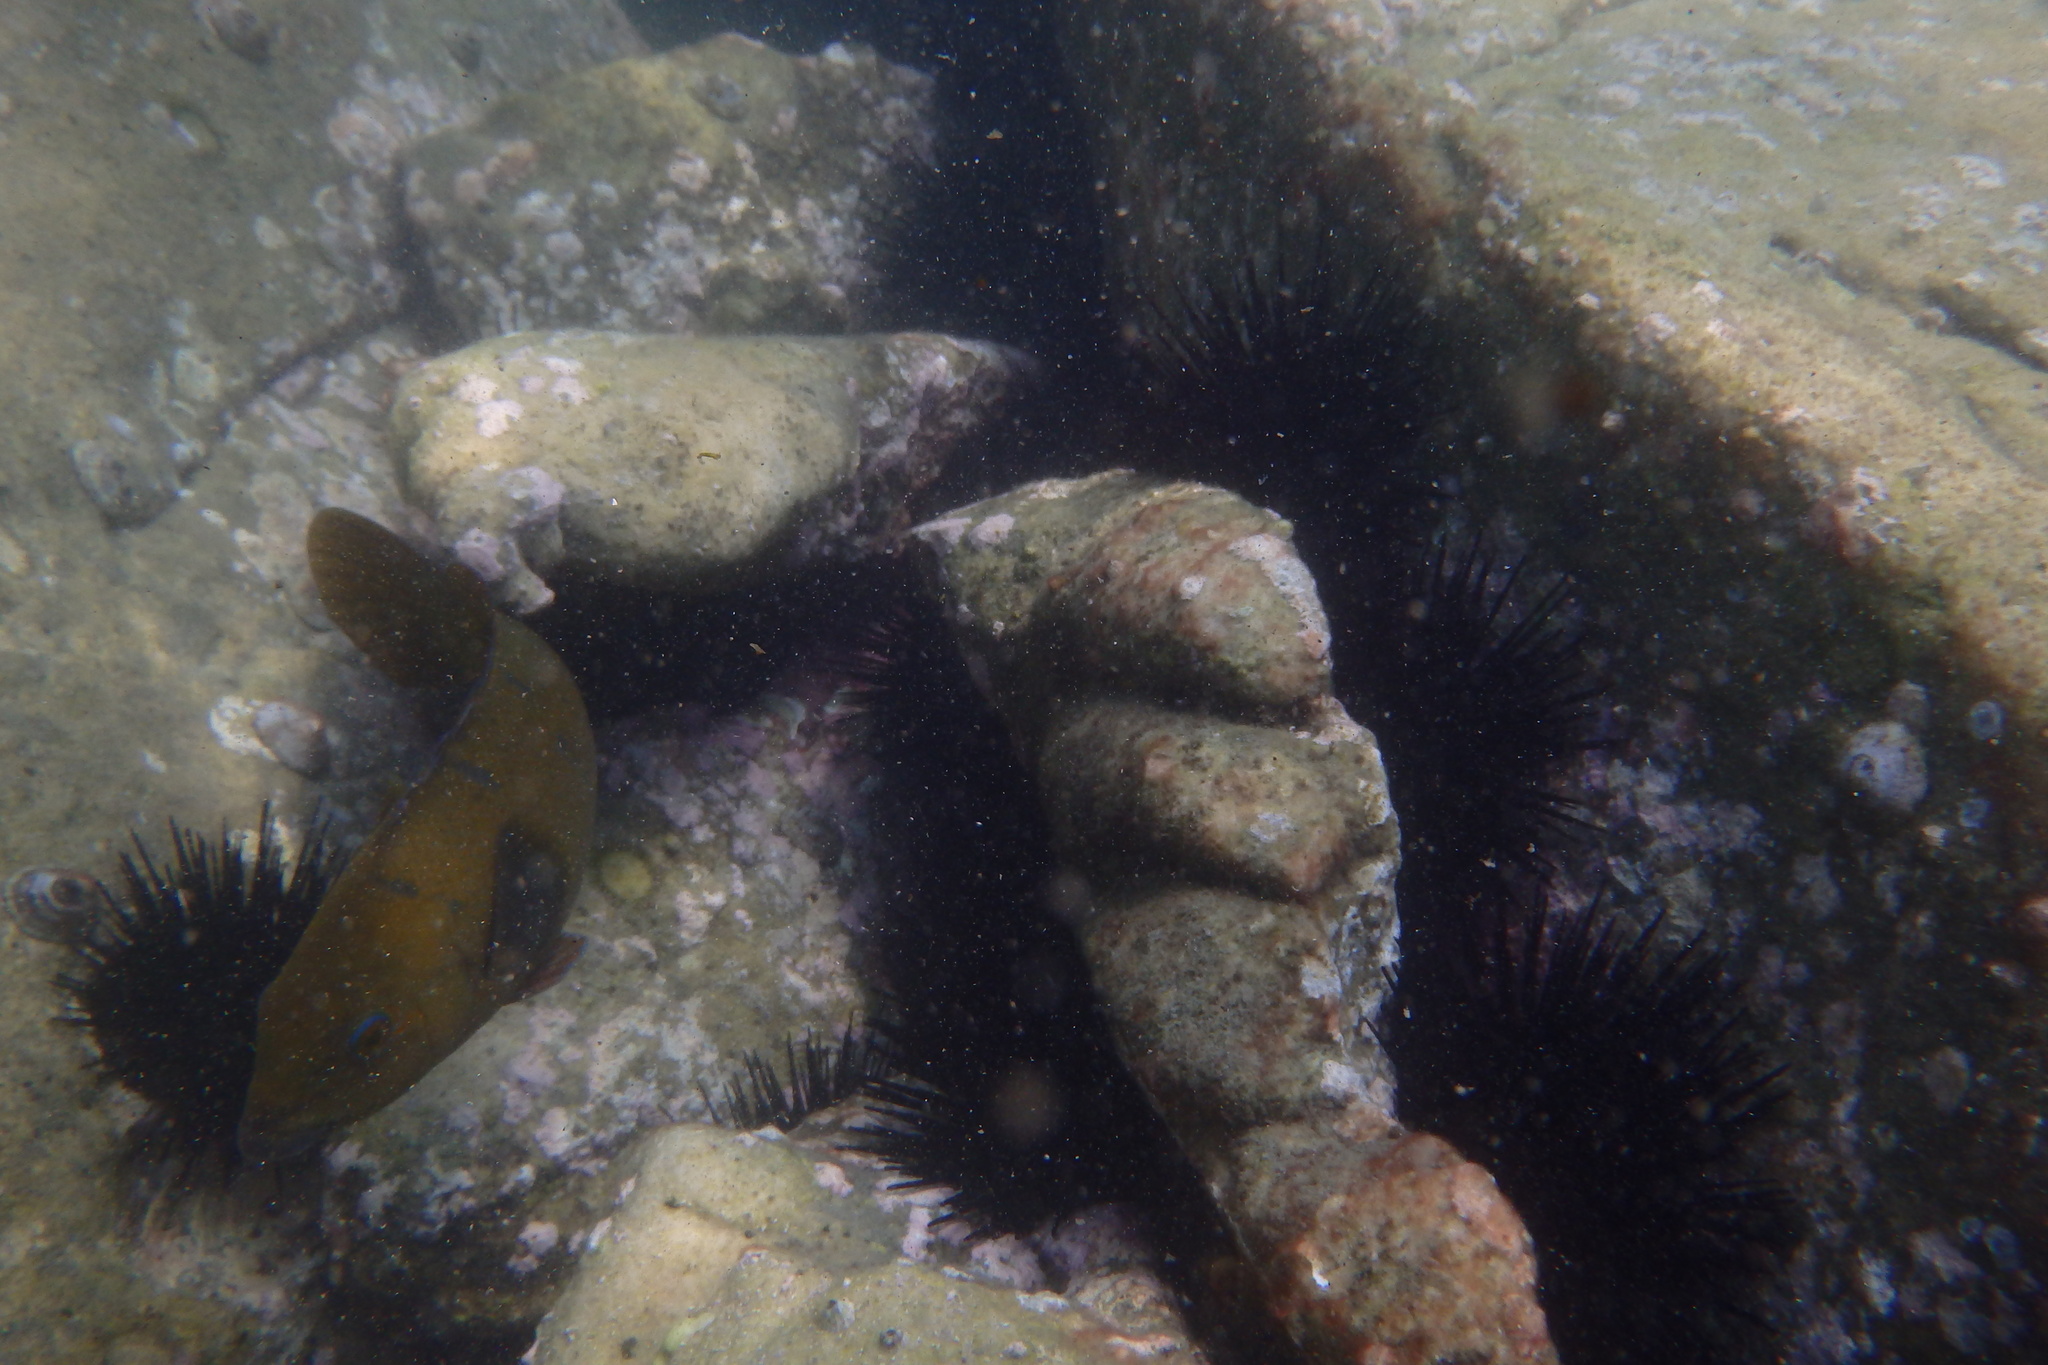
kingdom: Animalia
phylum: Chordata
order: Perciformes
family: Labridae
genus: Achoerodus
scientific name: Achoerodus viridis
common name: Brown groper
